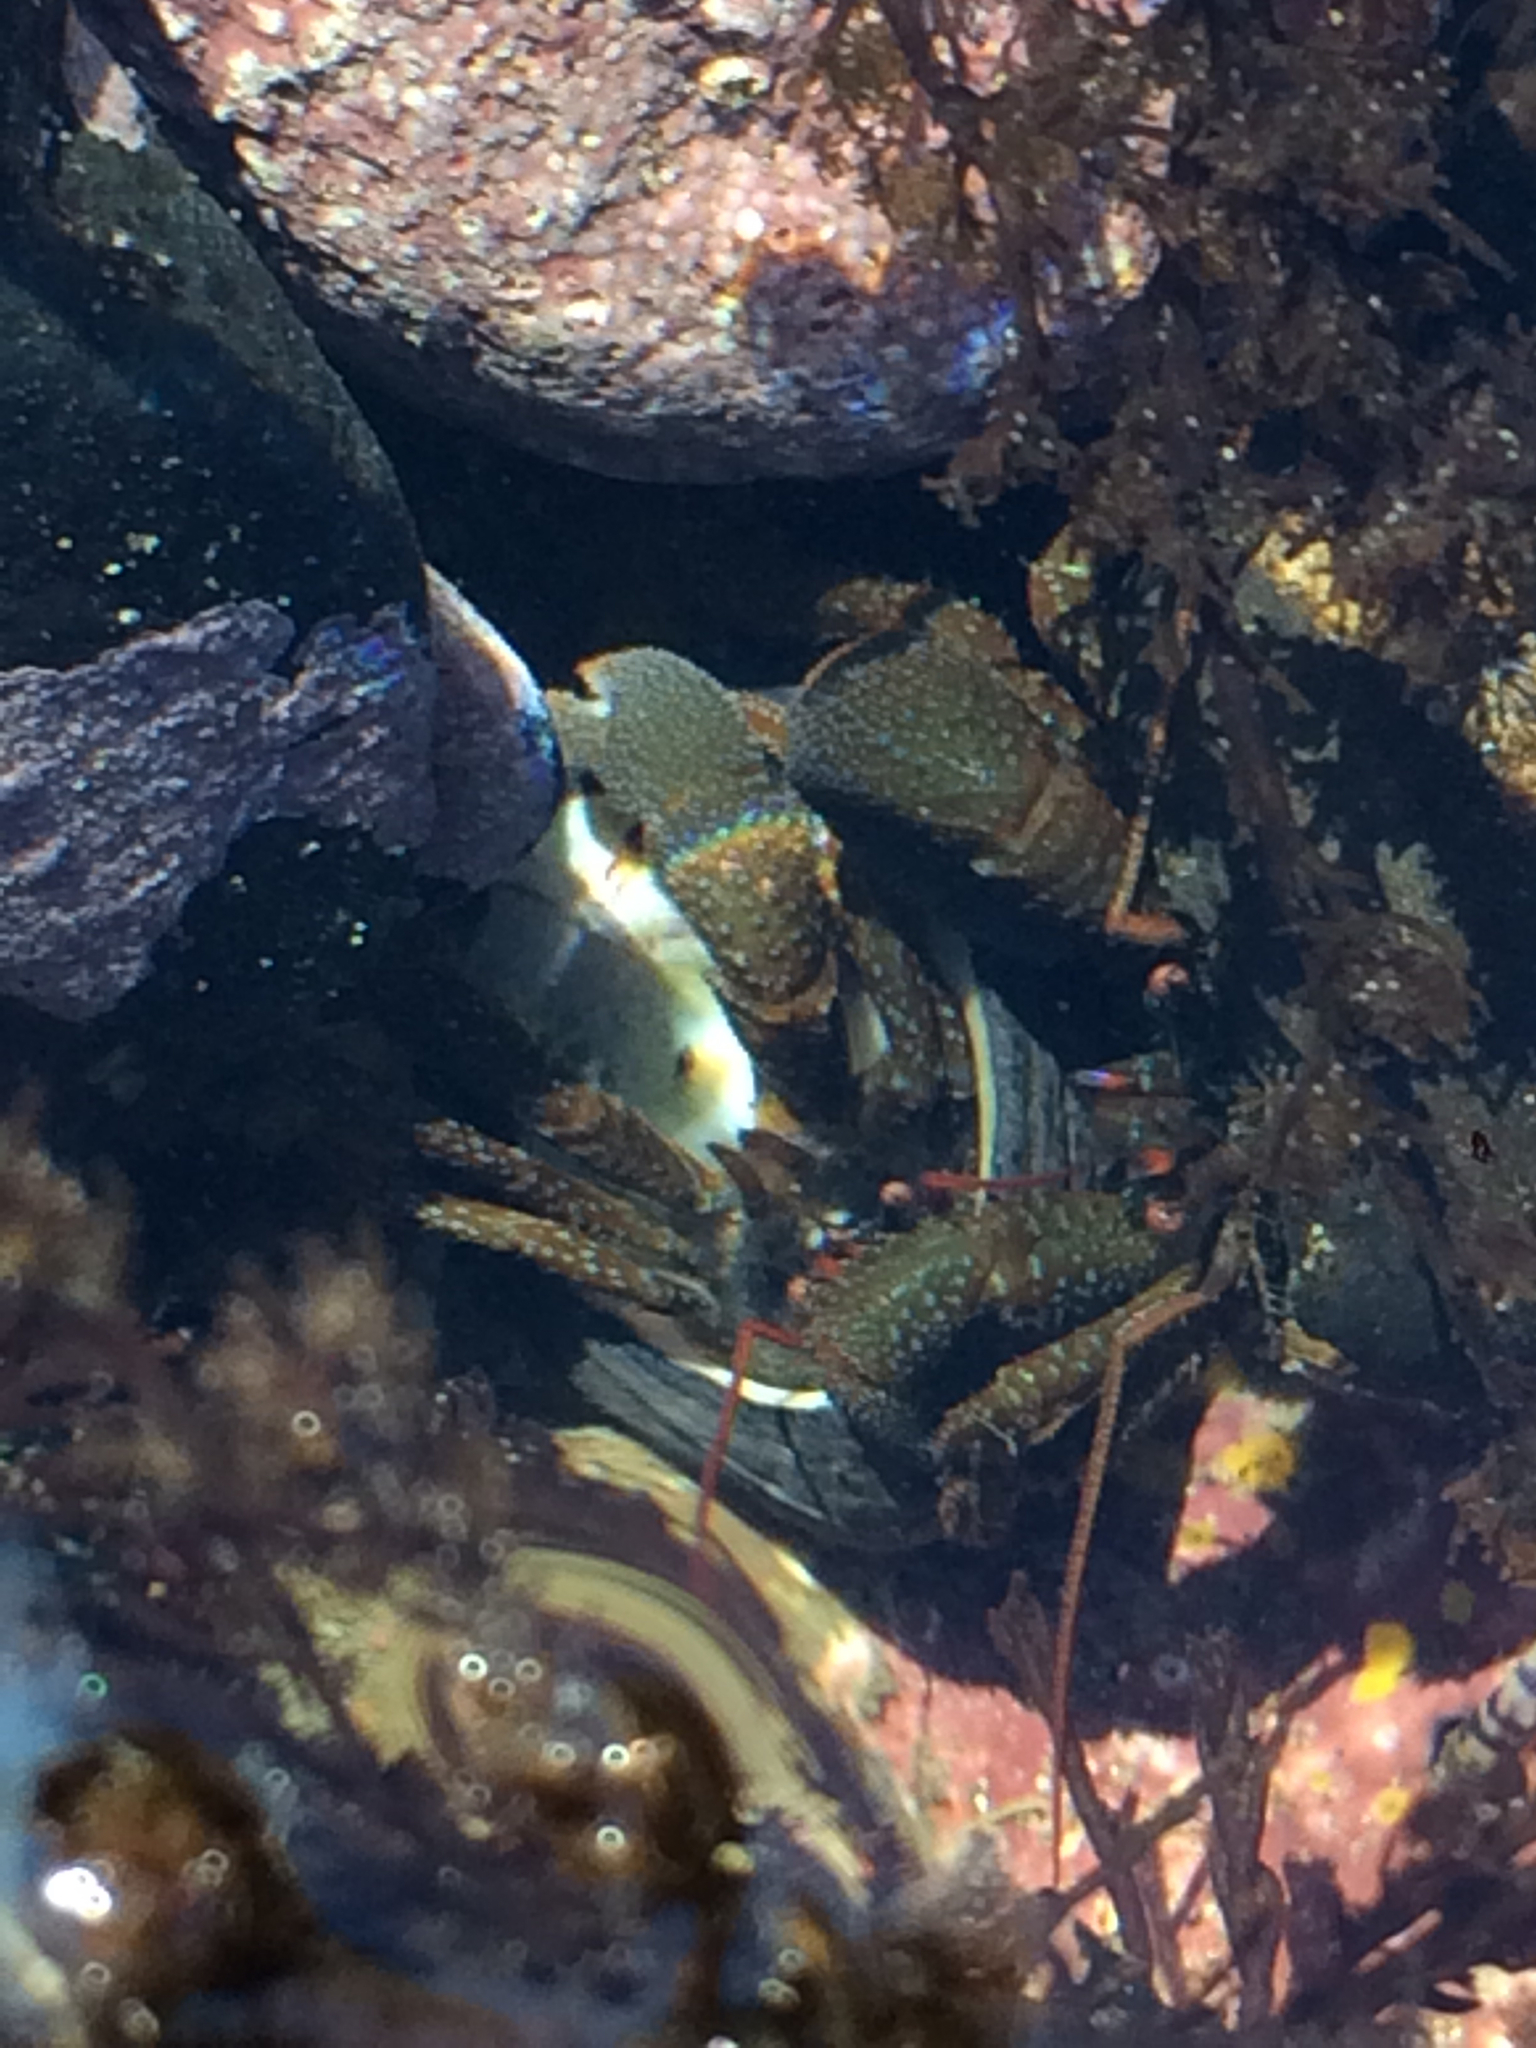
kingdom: Animalia
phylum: Arthropoda
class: Malacostraca
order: Decapoda
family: Paguridae
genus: Pagurus
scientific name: Pagurus granosimanus
